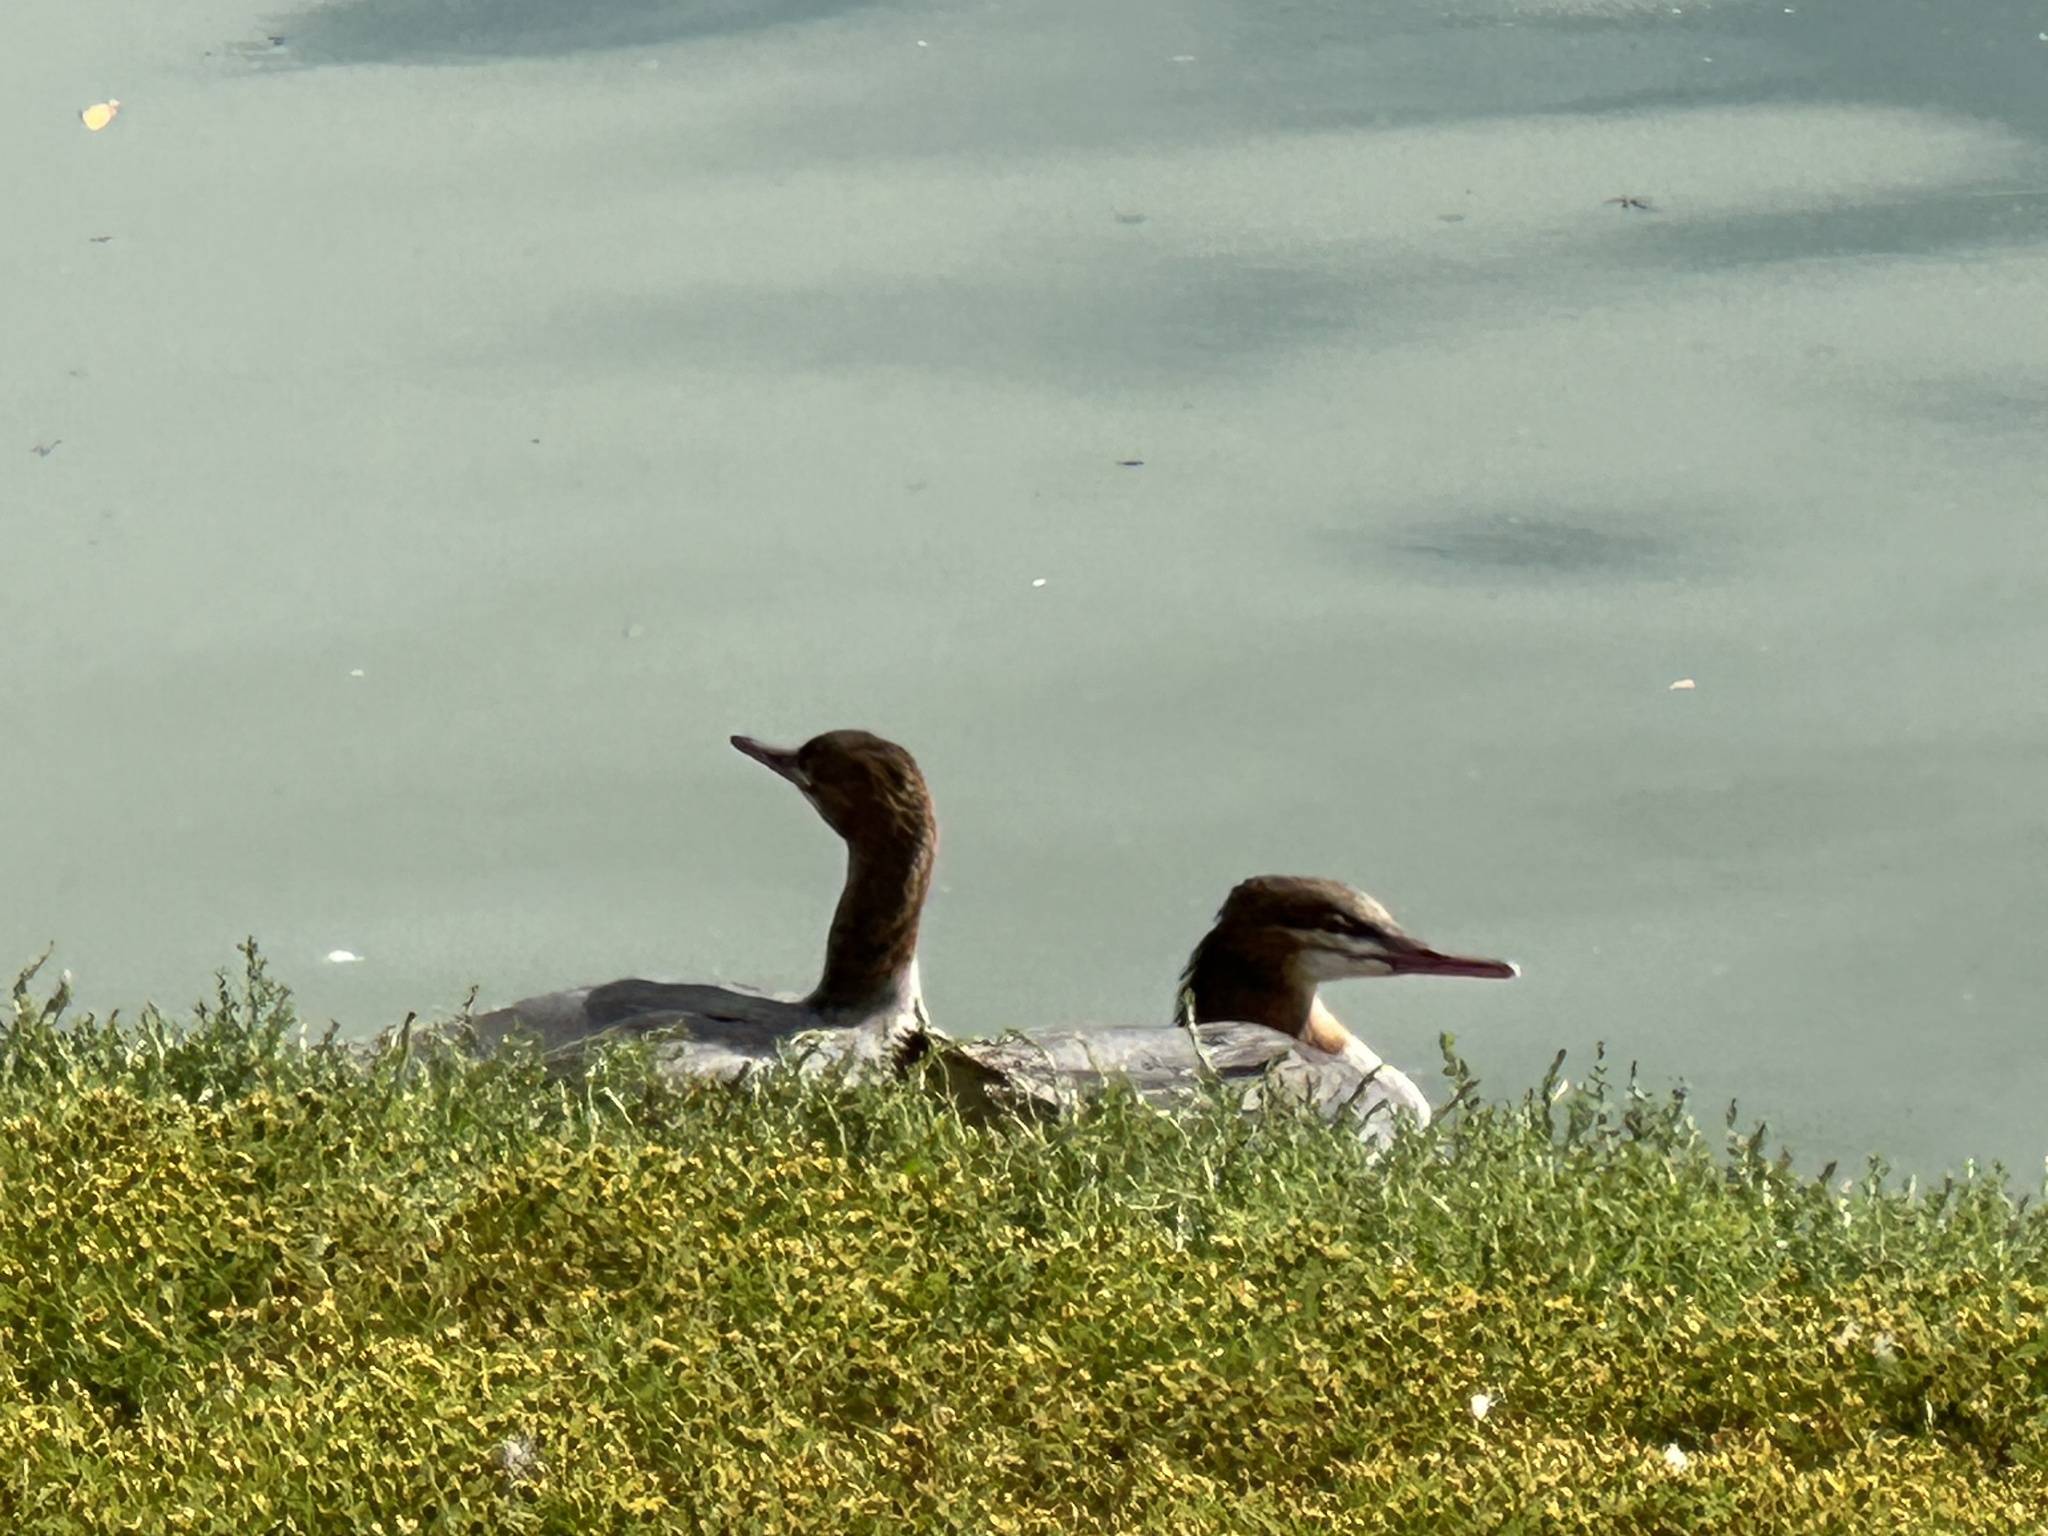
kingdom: Animalia
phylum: Chordata
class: Aves
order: Anseriformes
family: Anatidae
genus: Mergus
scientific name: Mergus merganser
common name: Common merganser
